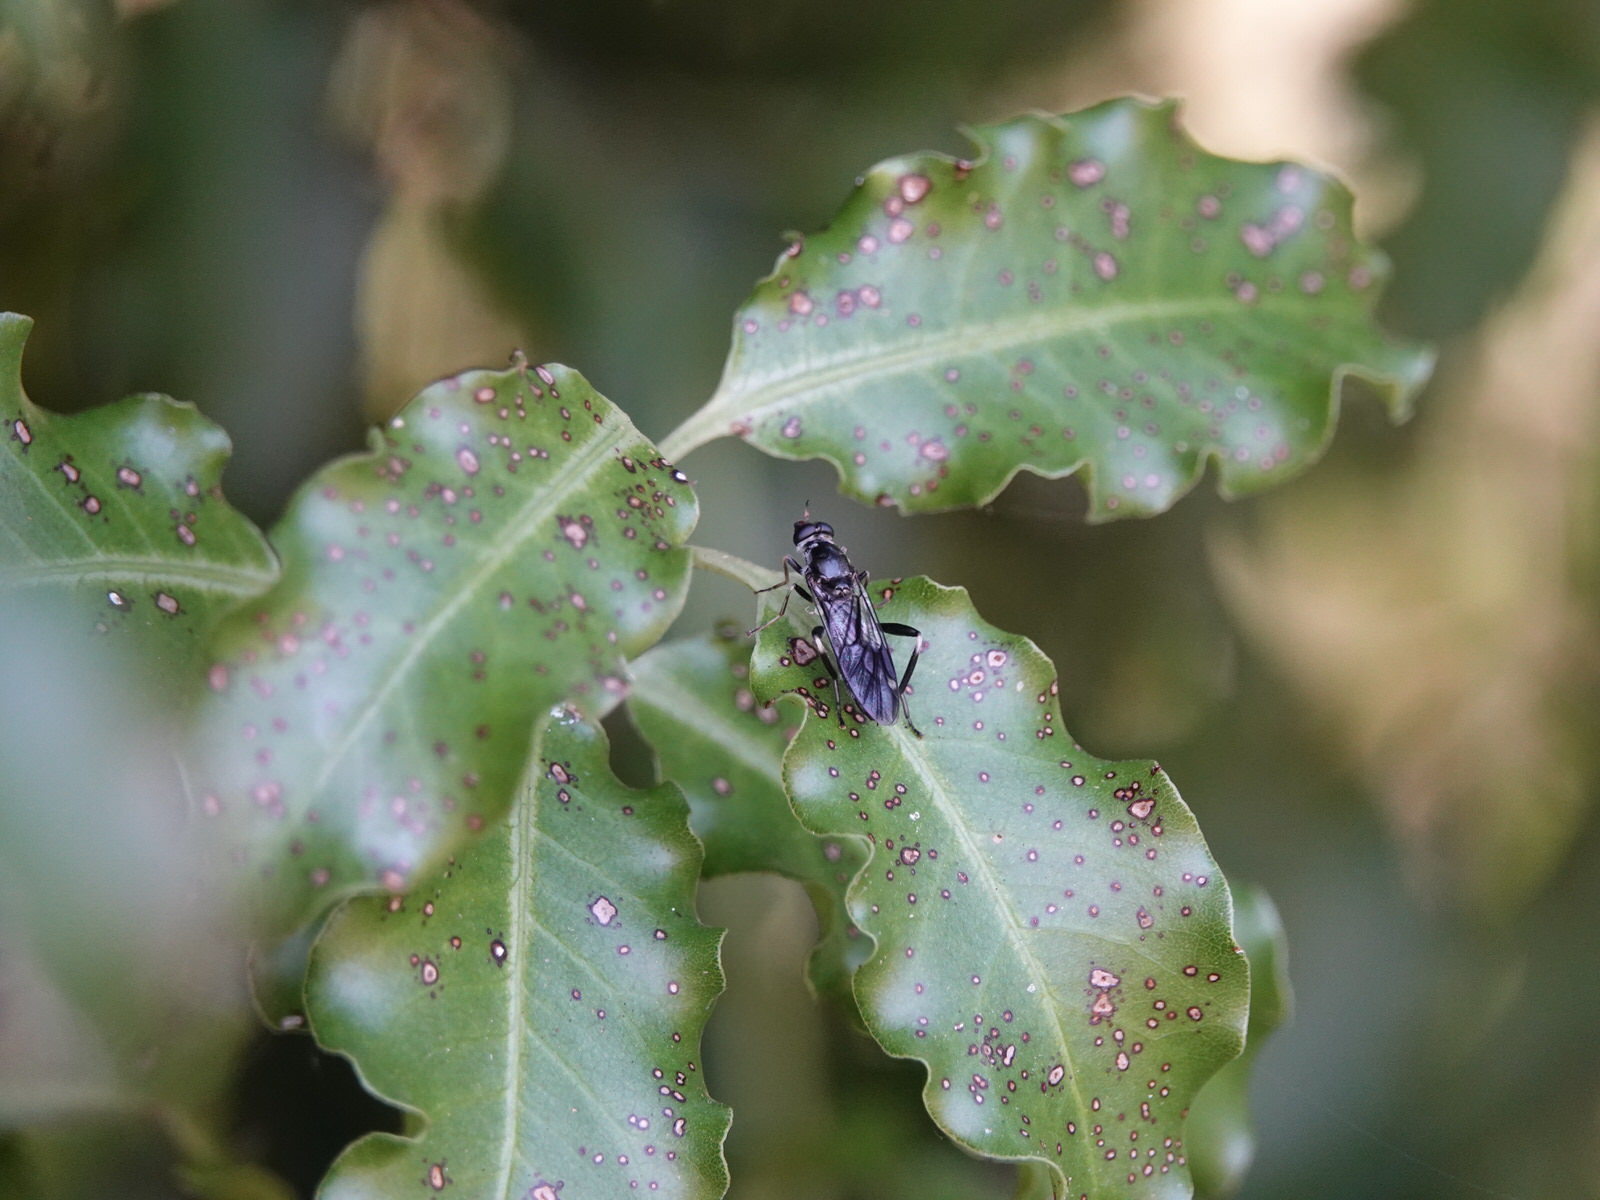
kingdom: Animalia
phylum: Arthropoda
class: Insecta
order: Diptera
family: Stratiomyidae
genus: Exaireta
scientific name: Exaireta spinigera
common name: Blue soldier fly
